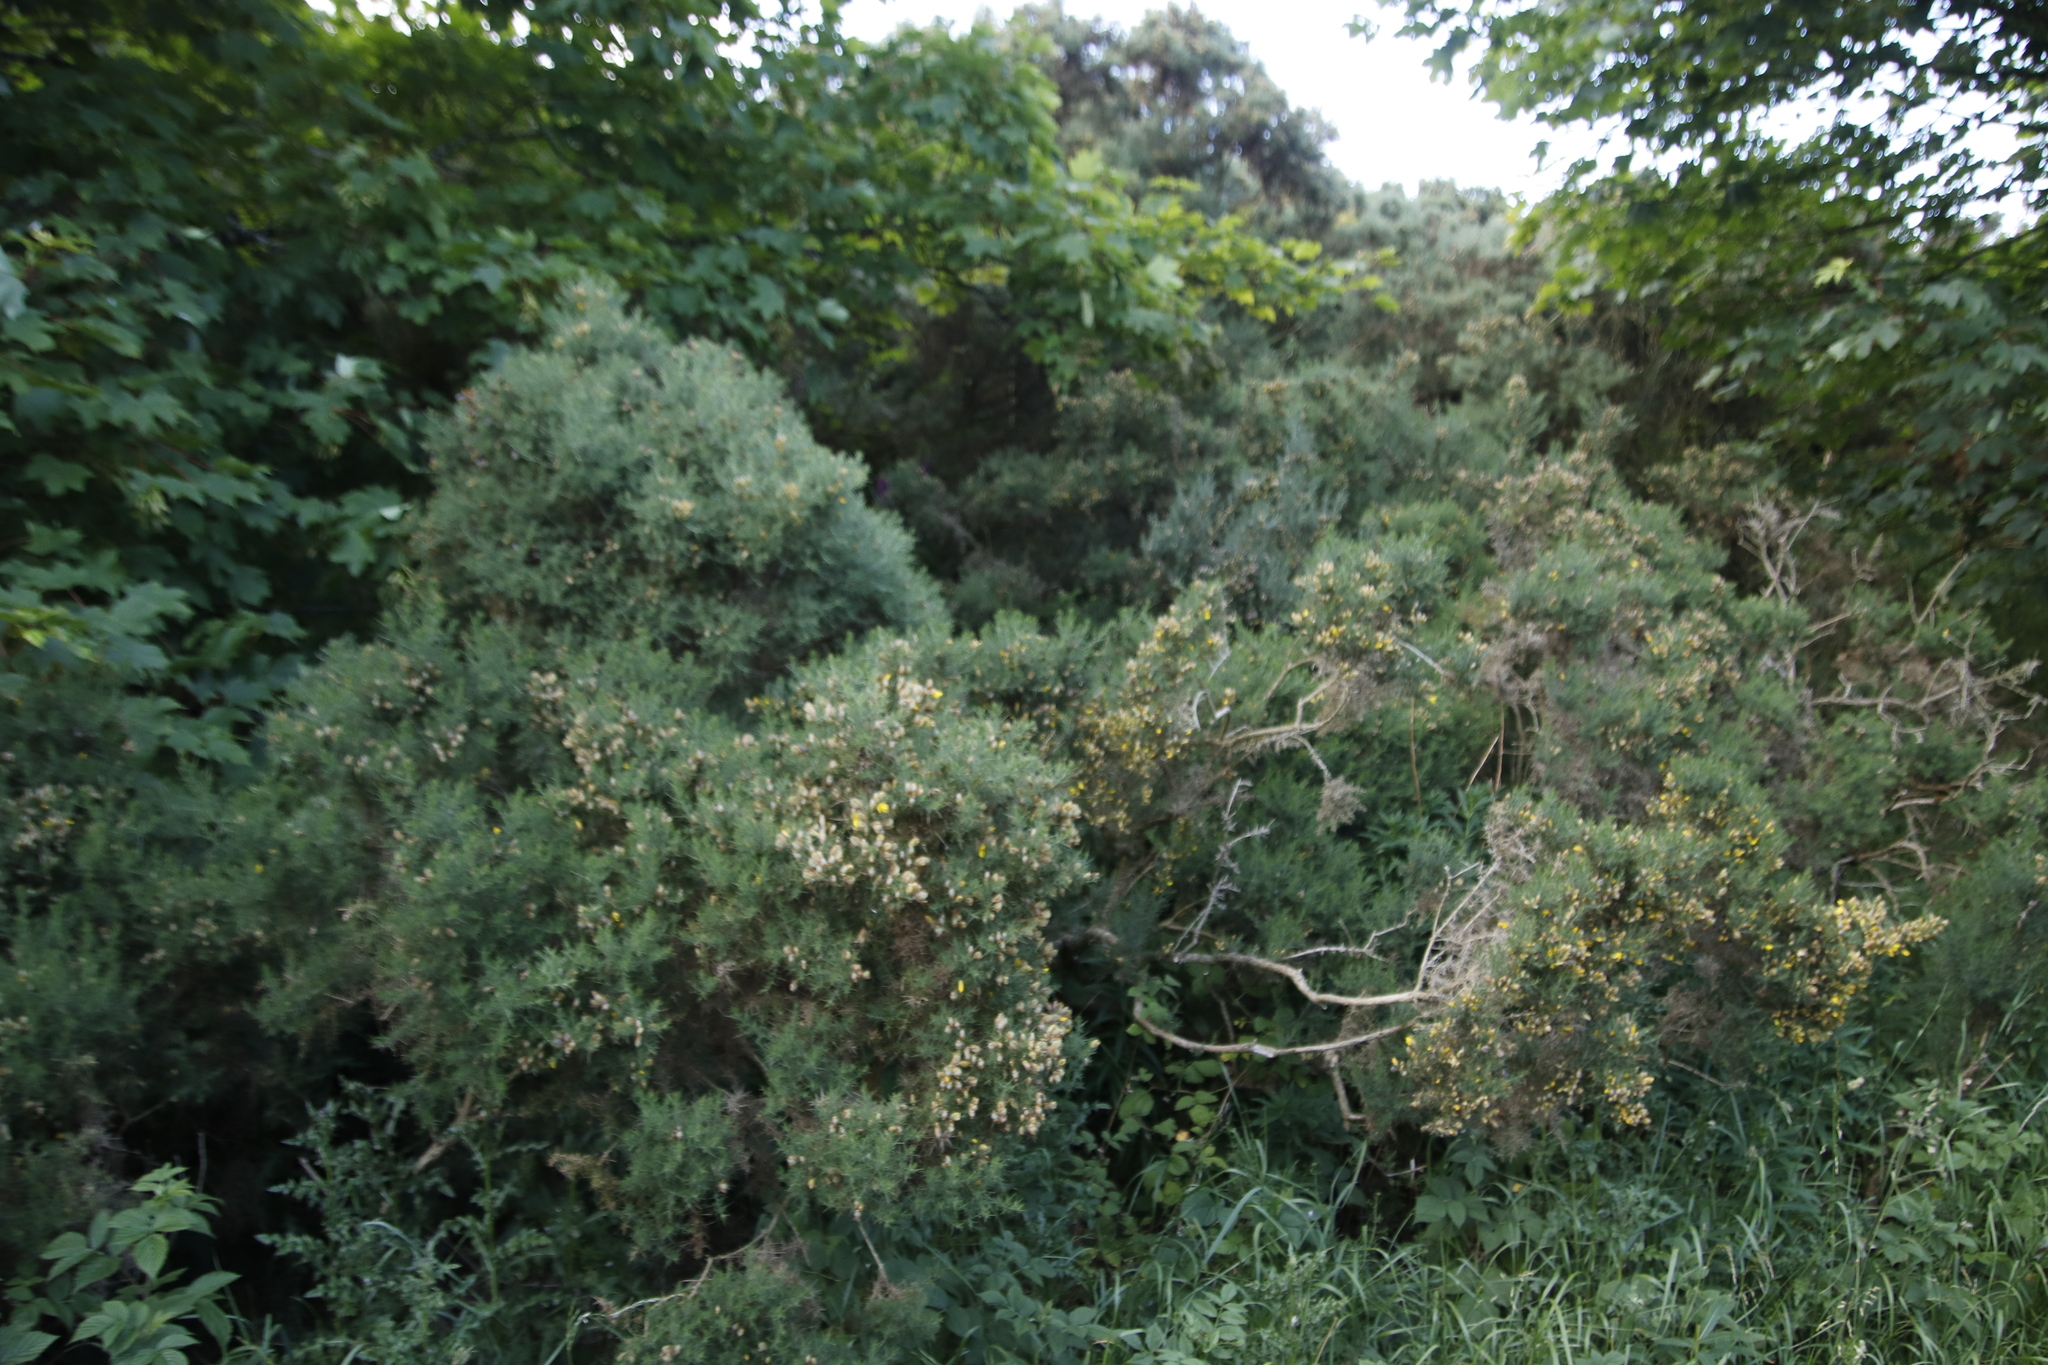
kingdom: Plantae
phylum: Tracheophyta
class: Magnoliopsida
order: Fabales
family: Fabaceae
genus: Ulex
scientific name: Ulex europaeus
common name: Common gorse
